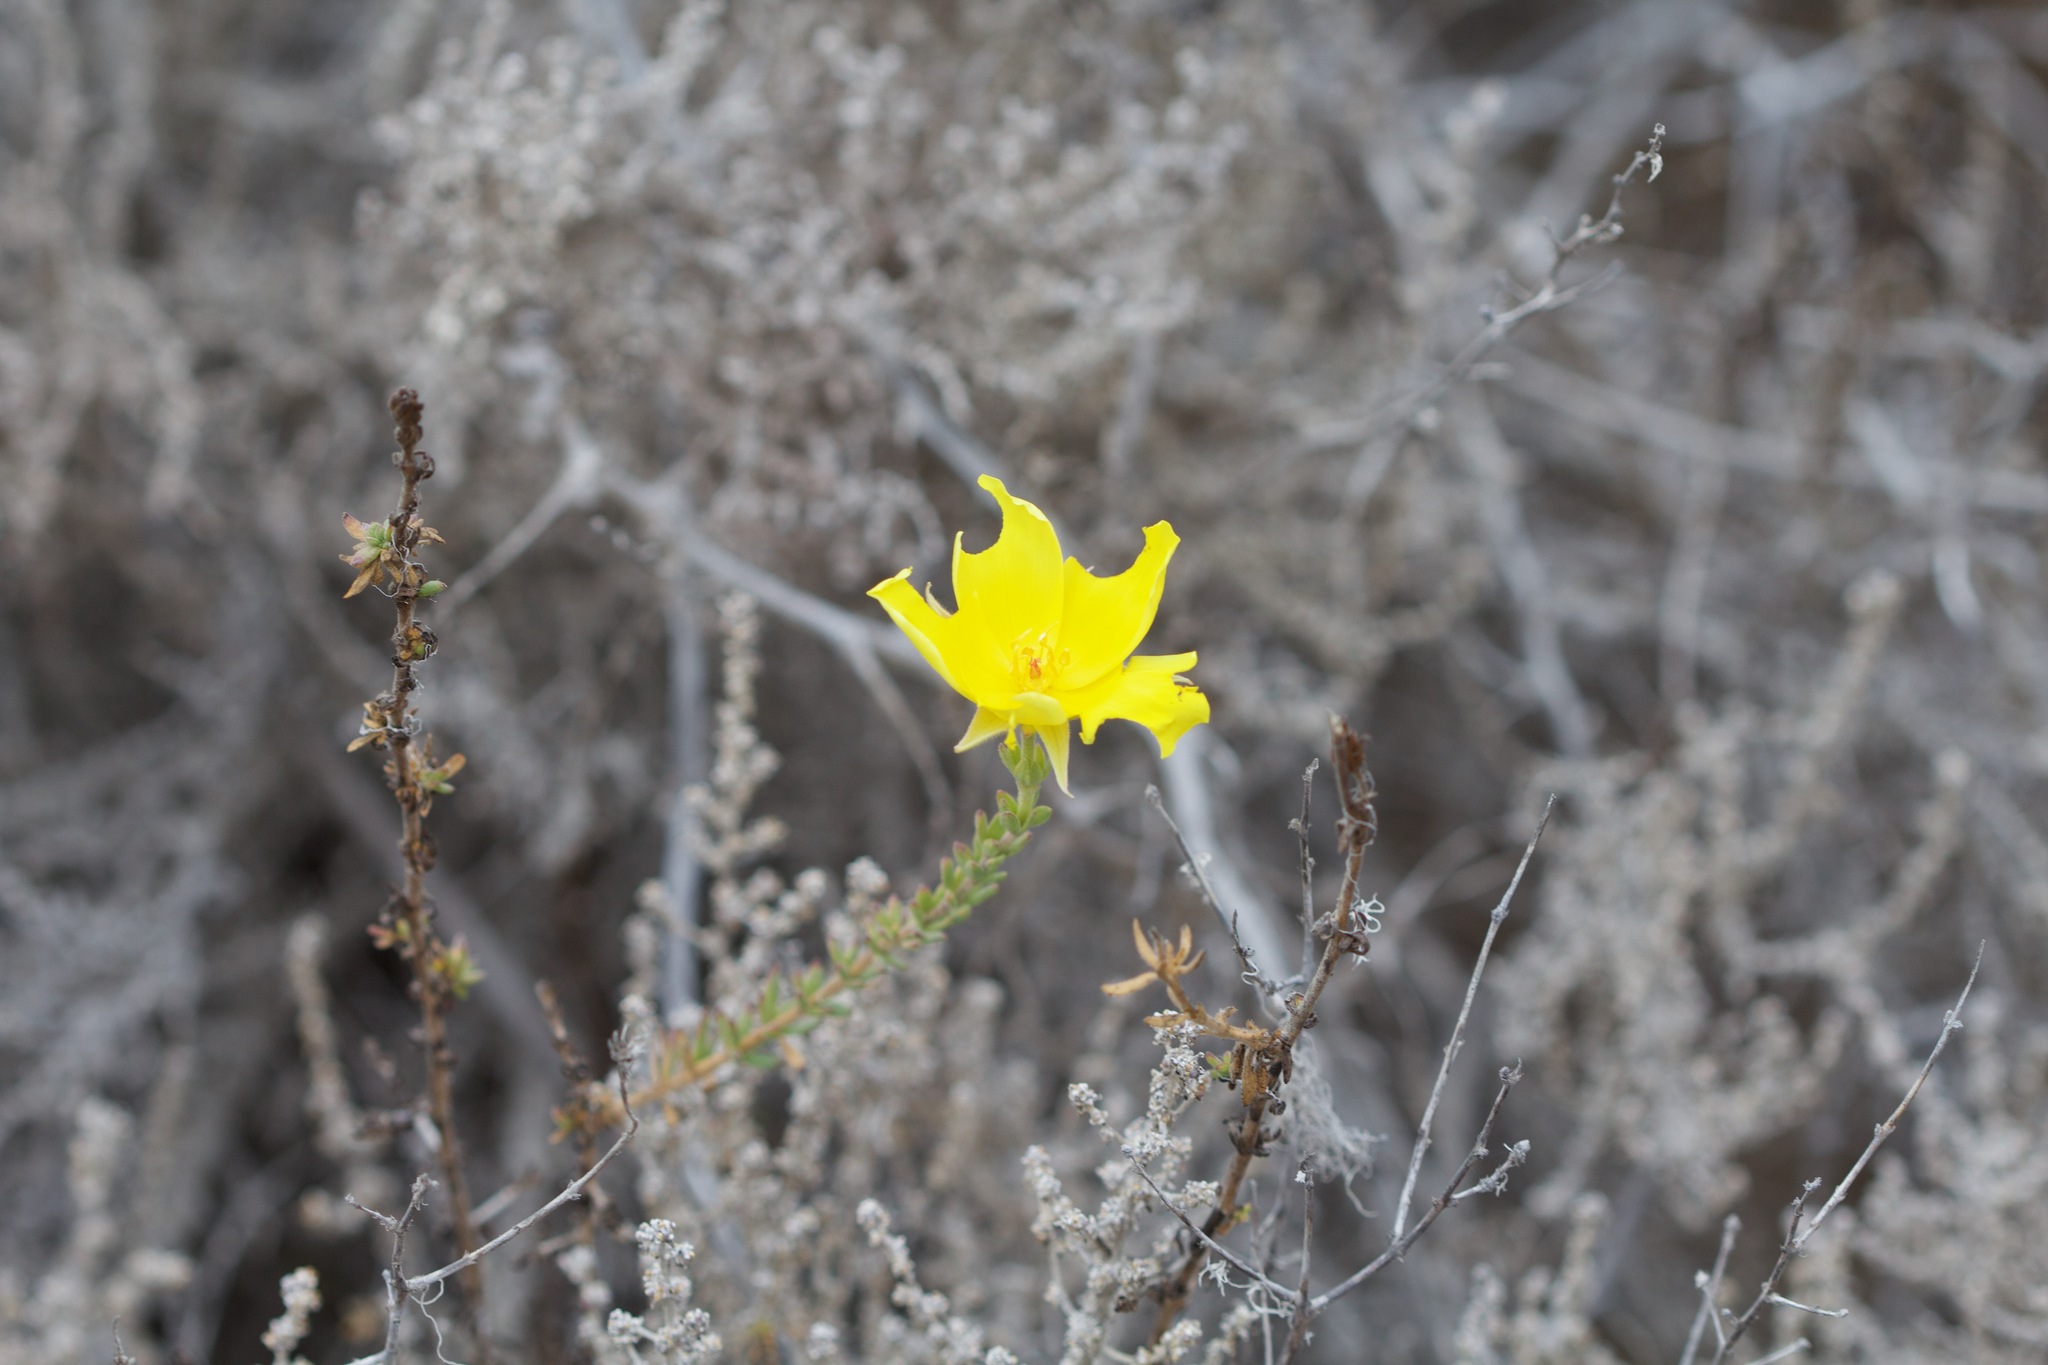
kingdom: Plantae
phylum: Tracheophyta
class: Magnoliopsida
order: Geraniales
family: Vivianiaceae
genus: Balbisia
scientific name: Balbisia peduncularis
